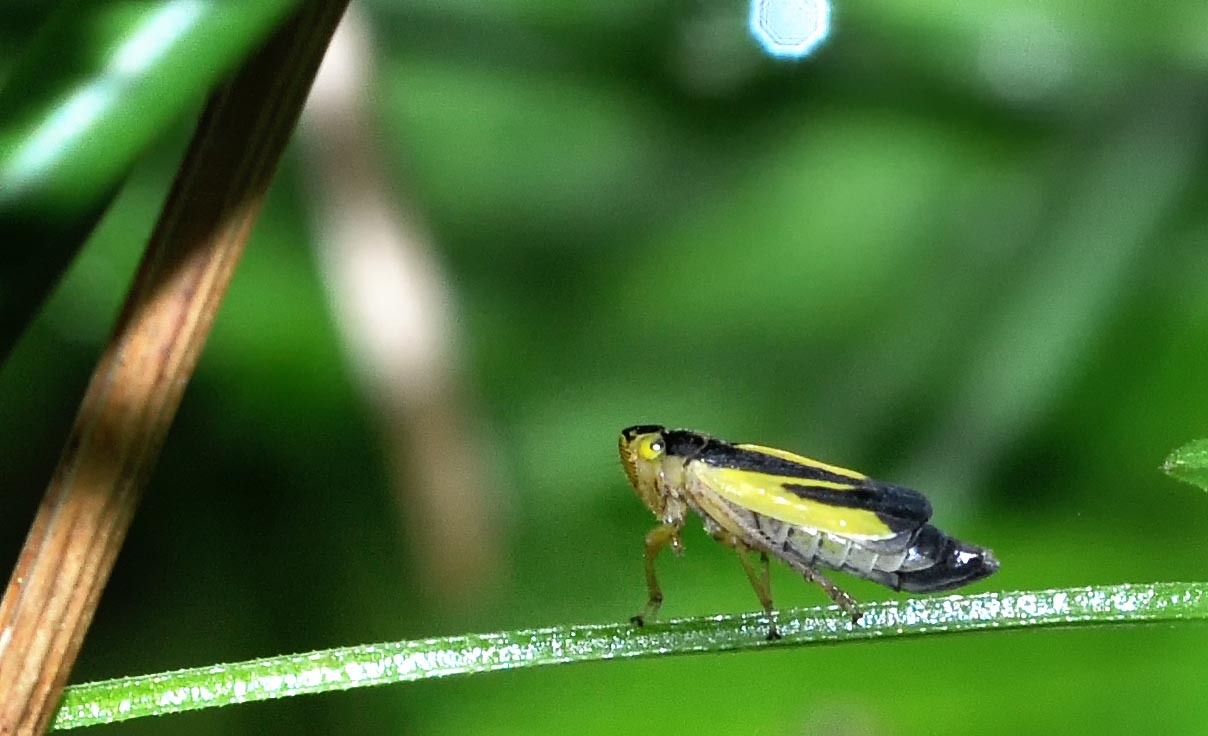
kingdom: Animalia
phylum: Arthropoda
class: Insecta
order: Hemiptera
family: Cicadellidae
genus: Evacanthus
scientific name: Evacanthus interruptus
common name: Leafhopper
